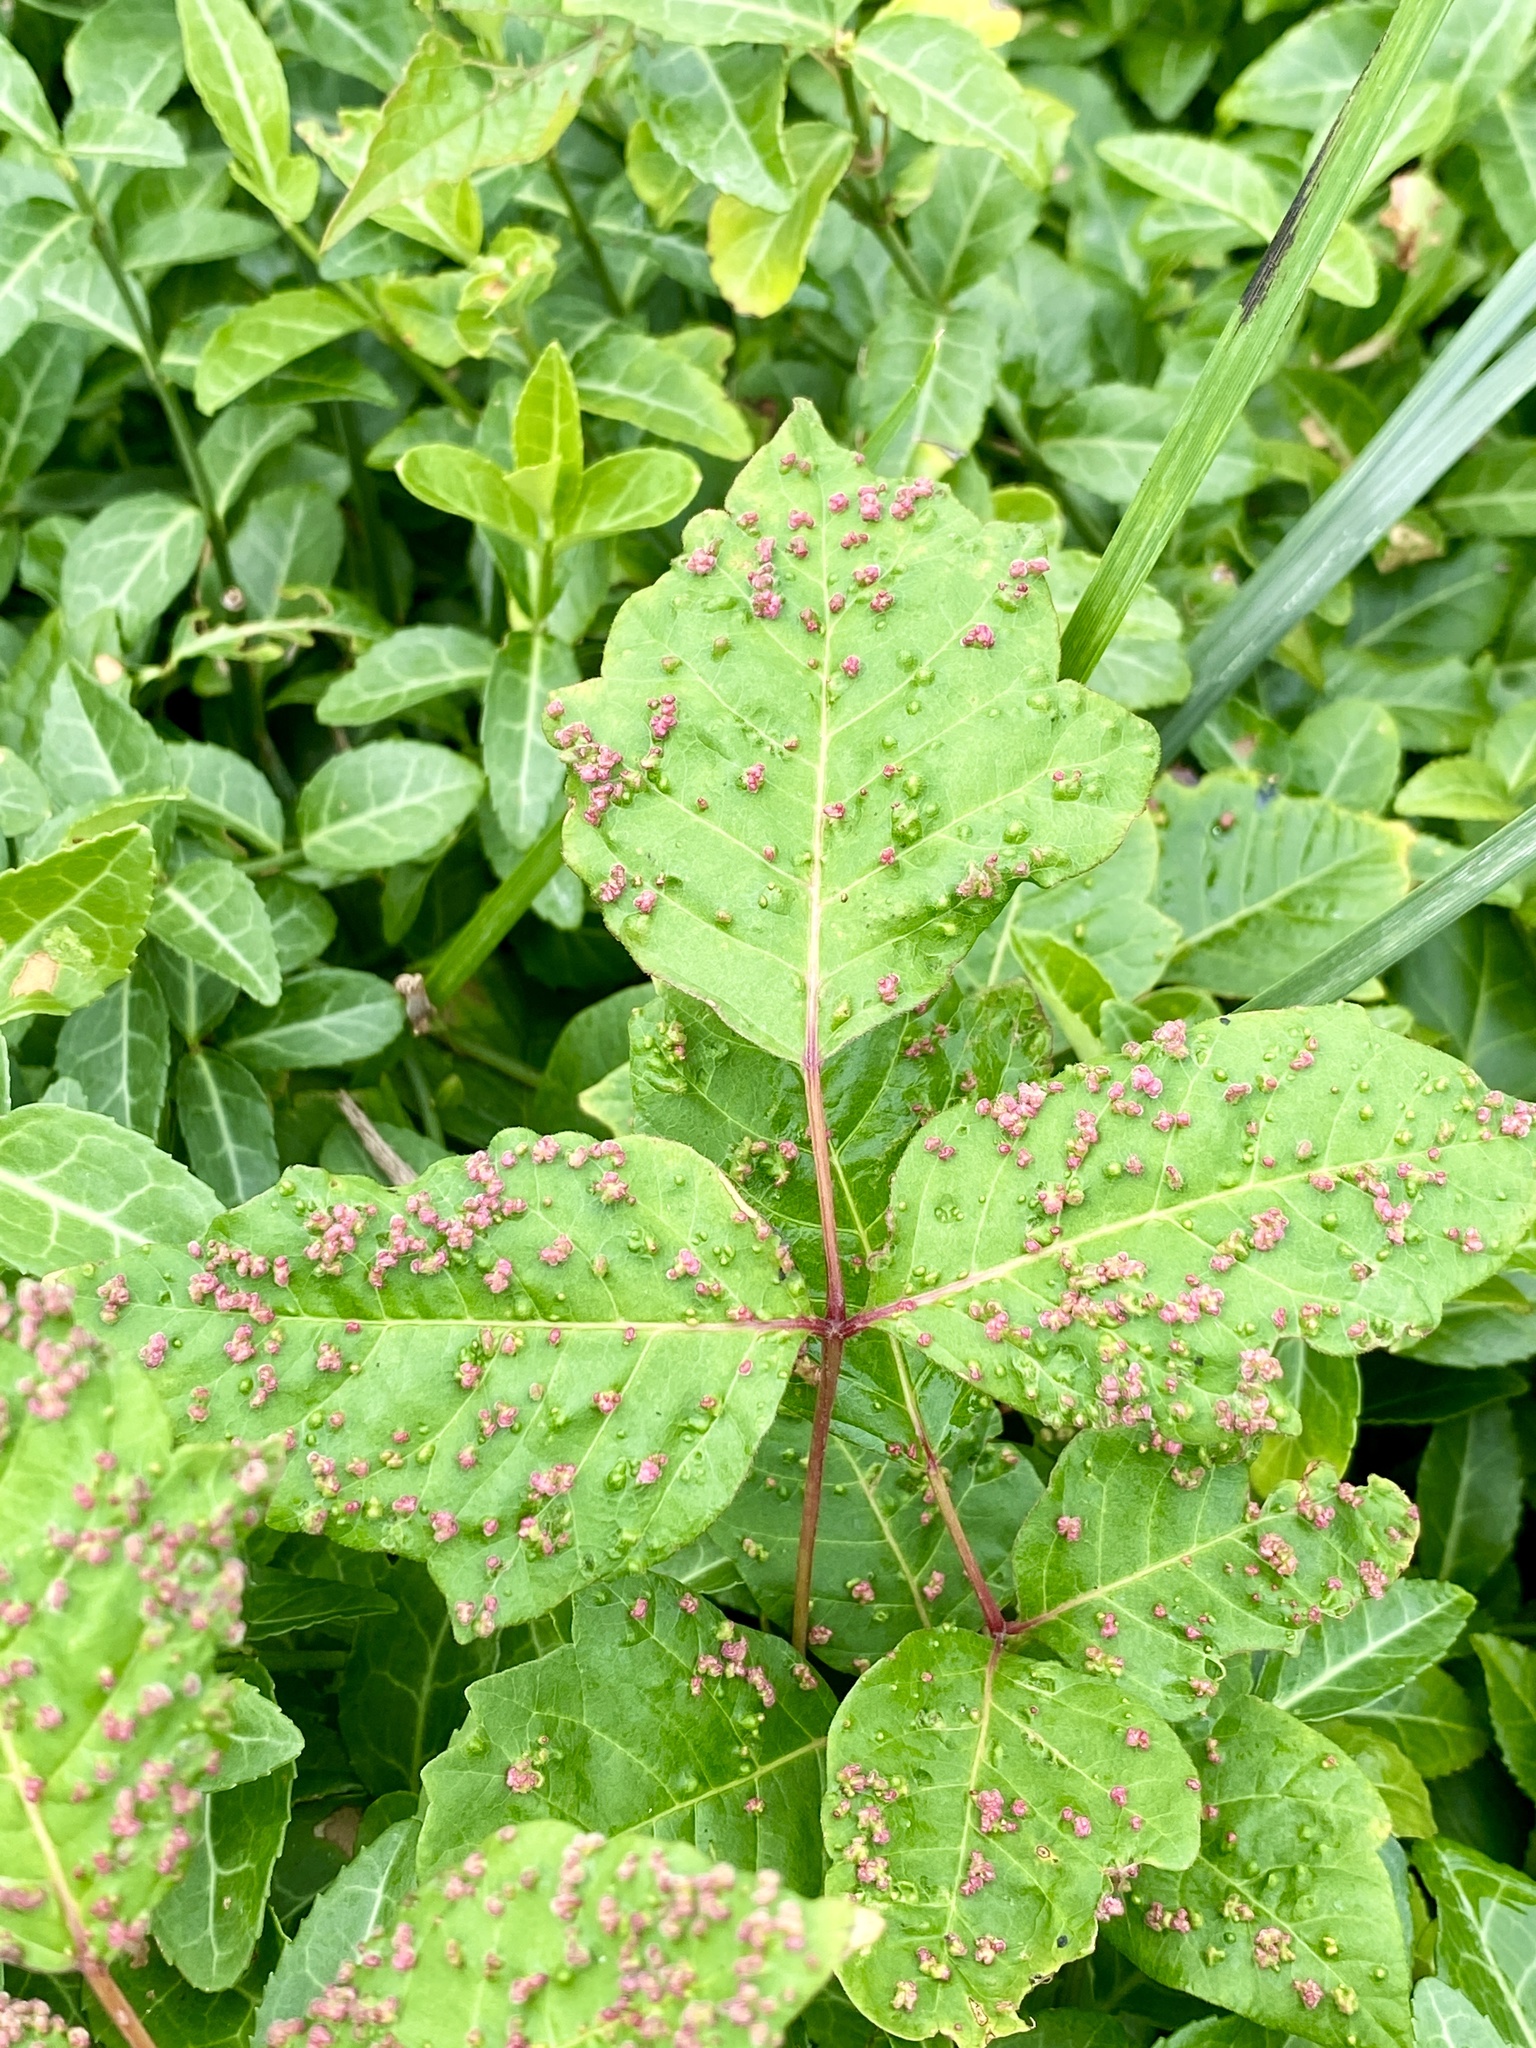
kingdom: Animalia
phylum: Arthropoda
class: Arachnida
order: Trombidiformes
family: Eriophyidae
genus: Aculops
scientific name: Aculops
